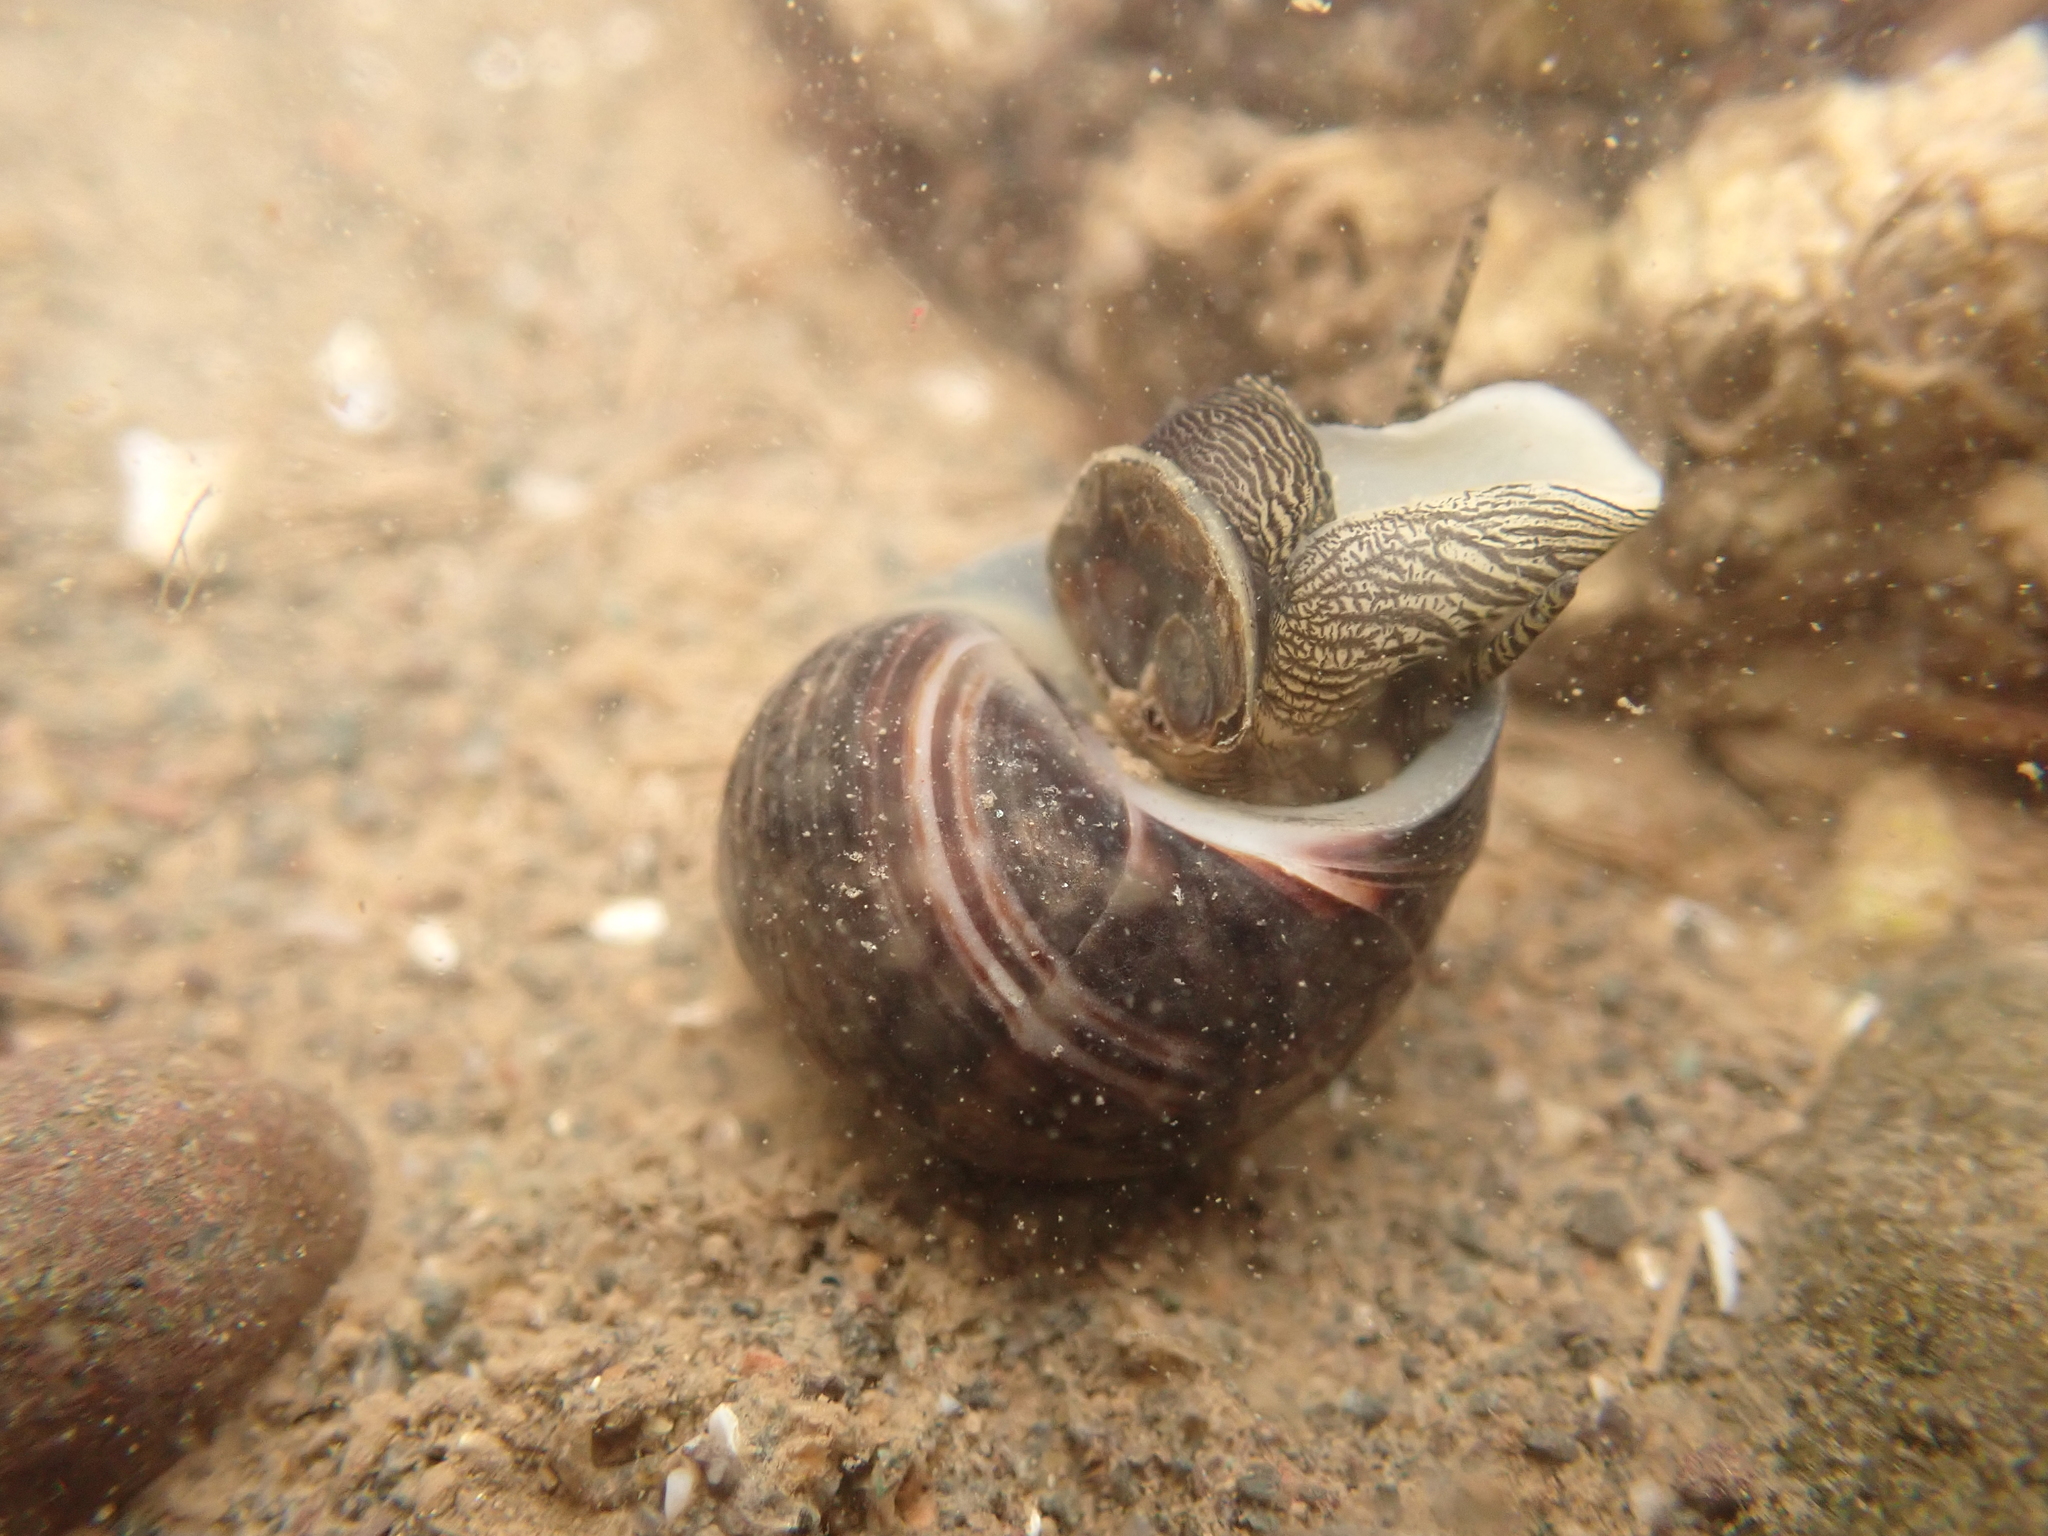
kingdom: Animalia
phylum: Mollusca
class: Gastropoda
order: Littorinimorpha
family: Littorinidae
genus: Littorina
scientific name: Littorina littorea
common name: Common periwinkle
